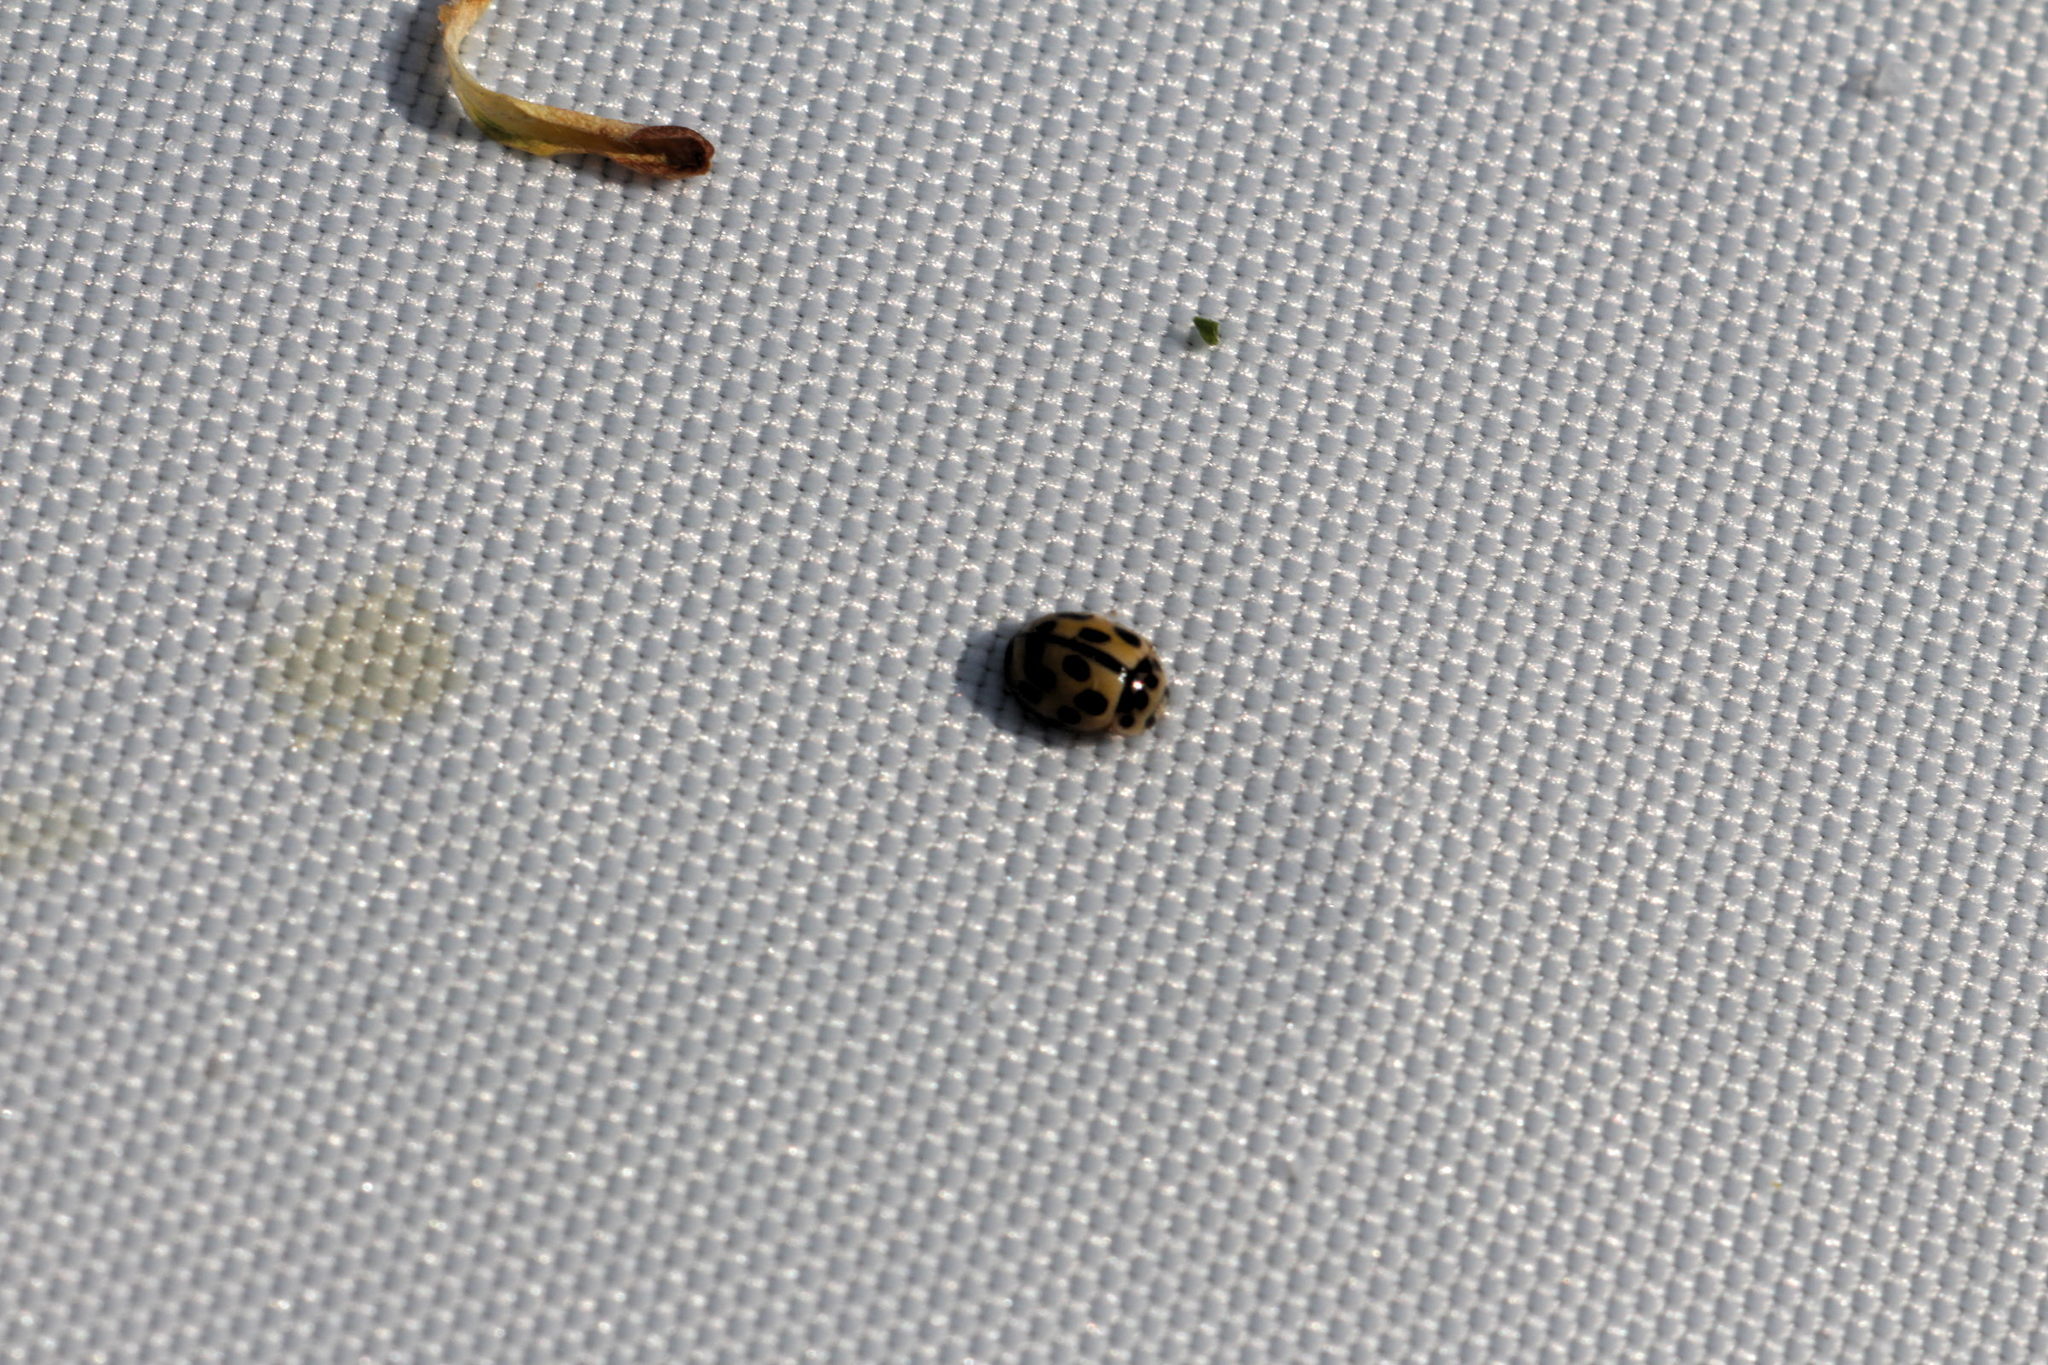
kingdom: Animalia
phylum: Arthropoda
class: Insecta
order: Coleoptera
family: Coccinellidae
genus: Propylaea
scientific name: Propylaea quatuordecimpunctata
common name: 14-spotted ladybird beetle
